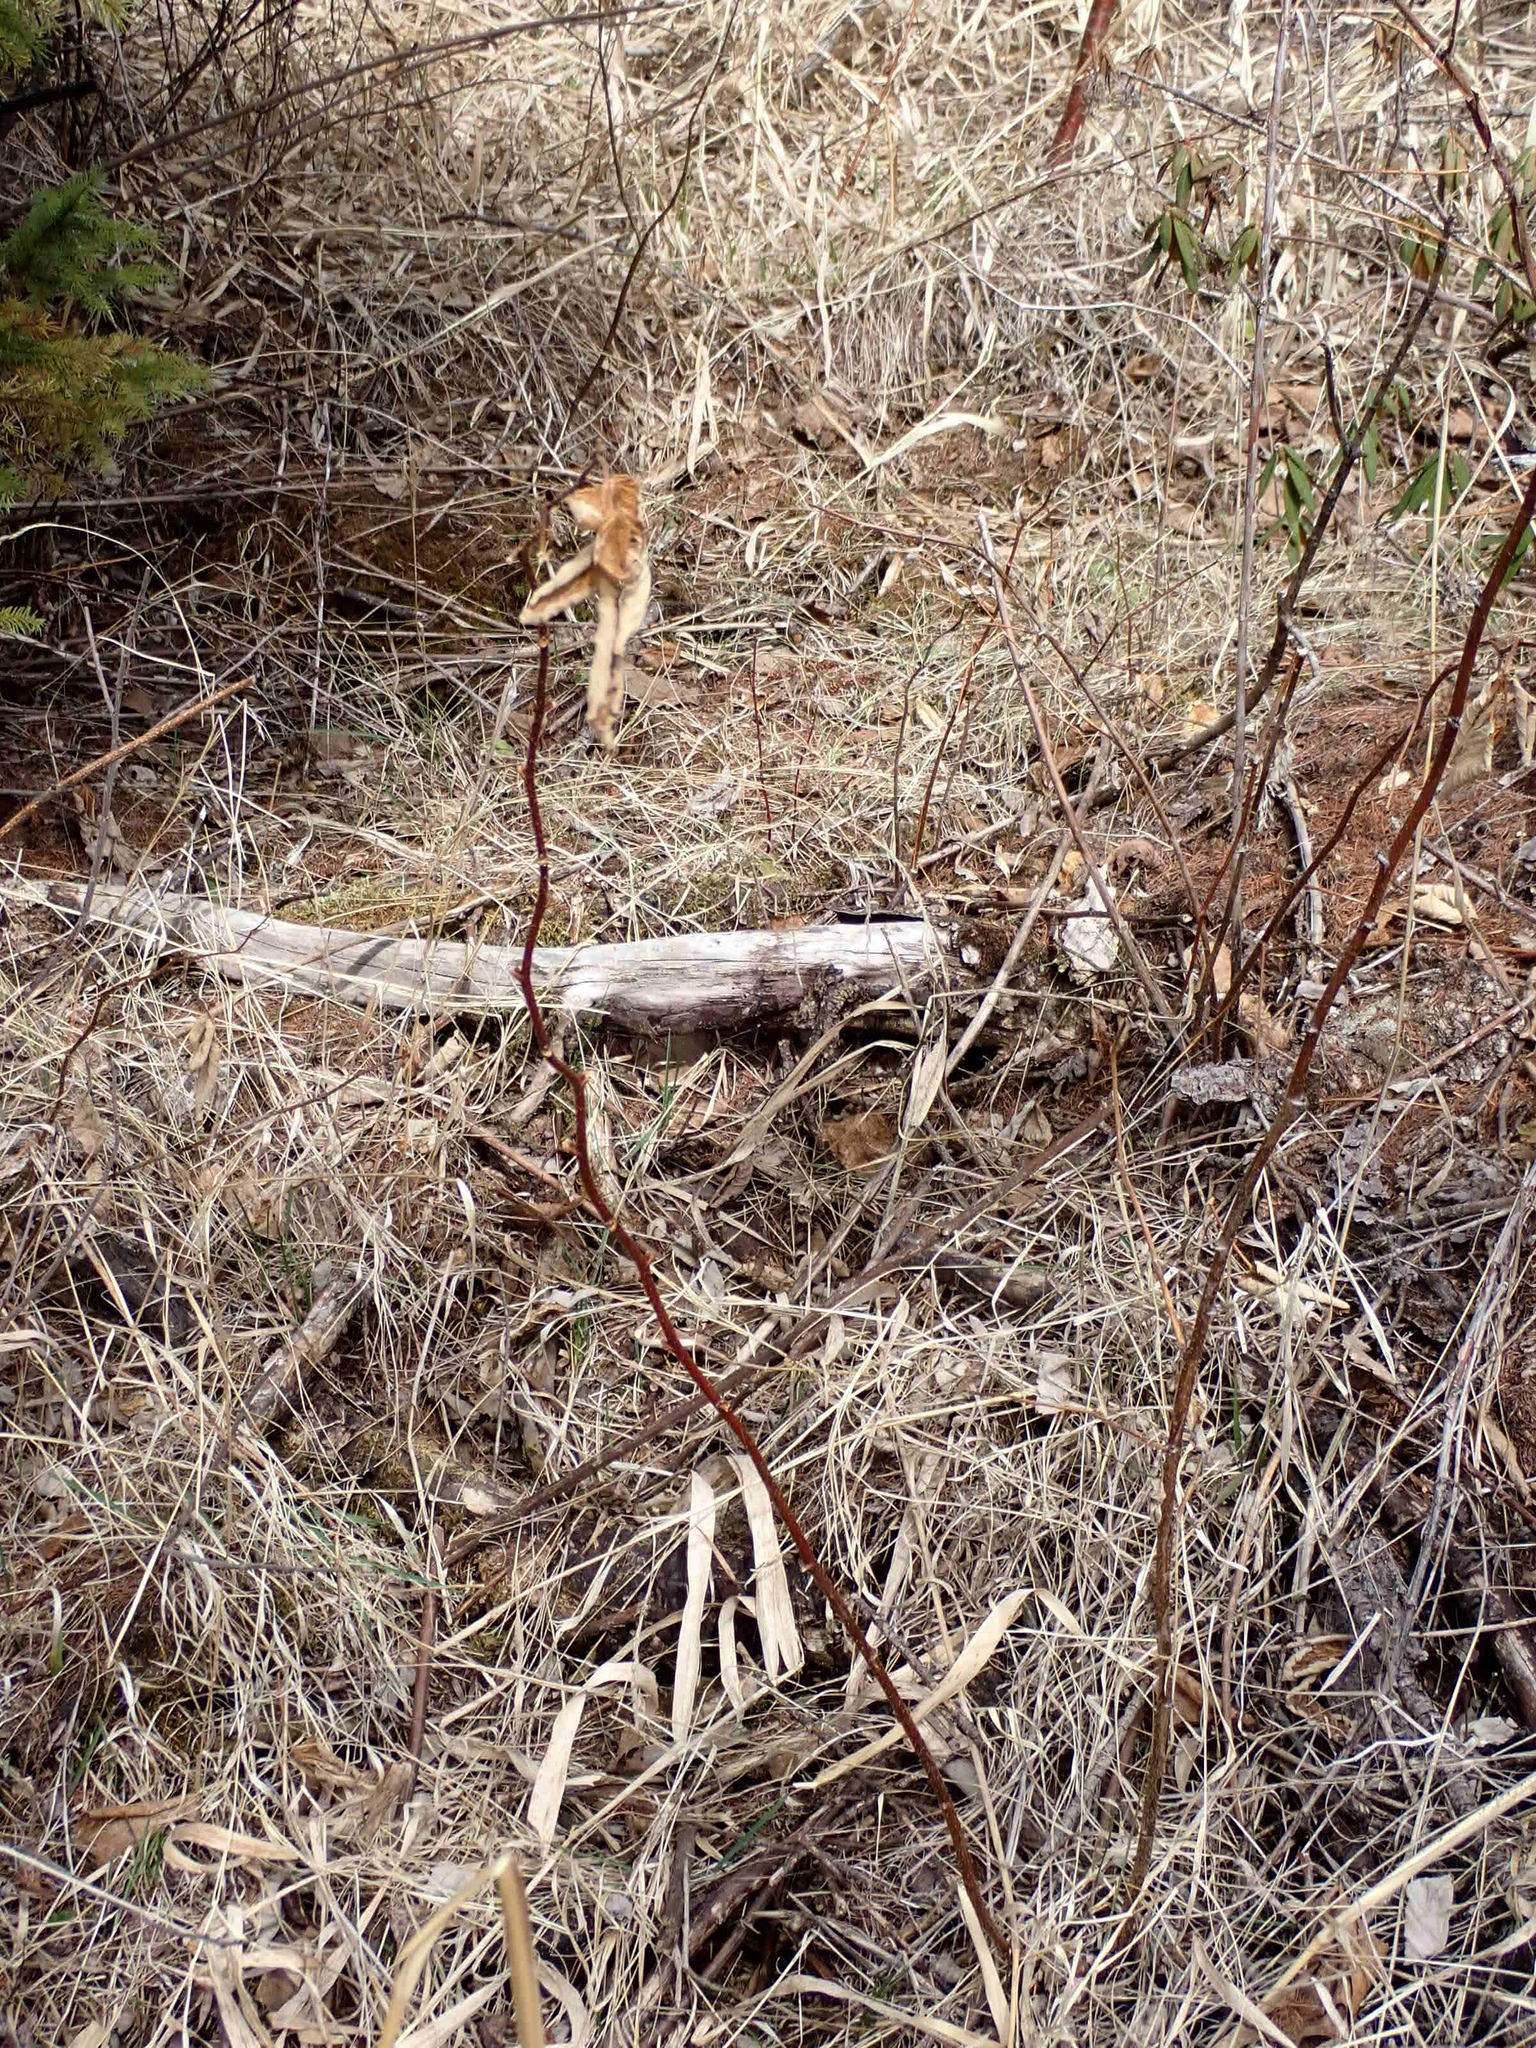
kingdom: Plantae
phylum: Tracheophyta
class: Magnoliopsida
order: Rosales
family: Rosaceae
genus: Rubus
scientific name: Rubus idaeus
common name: Raspberry
